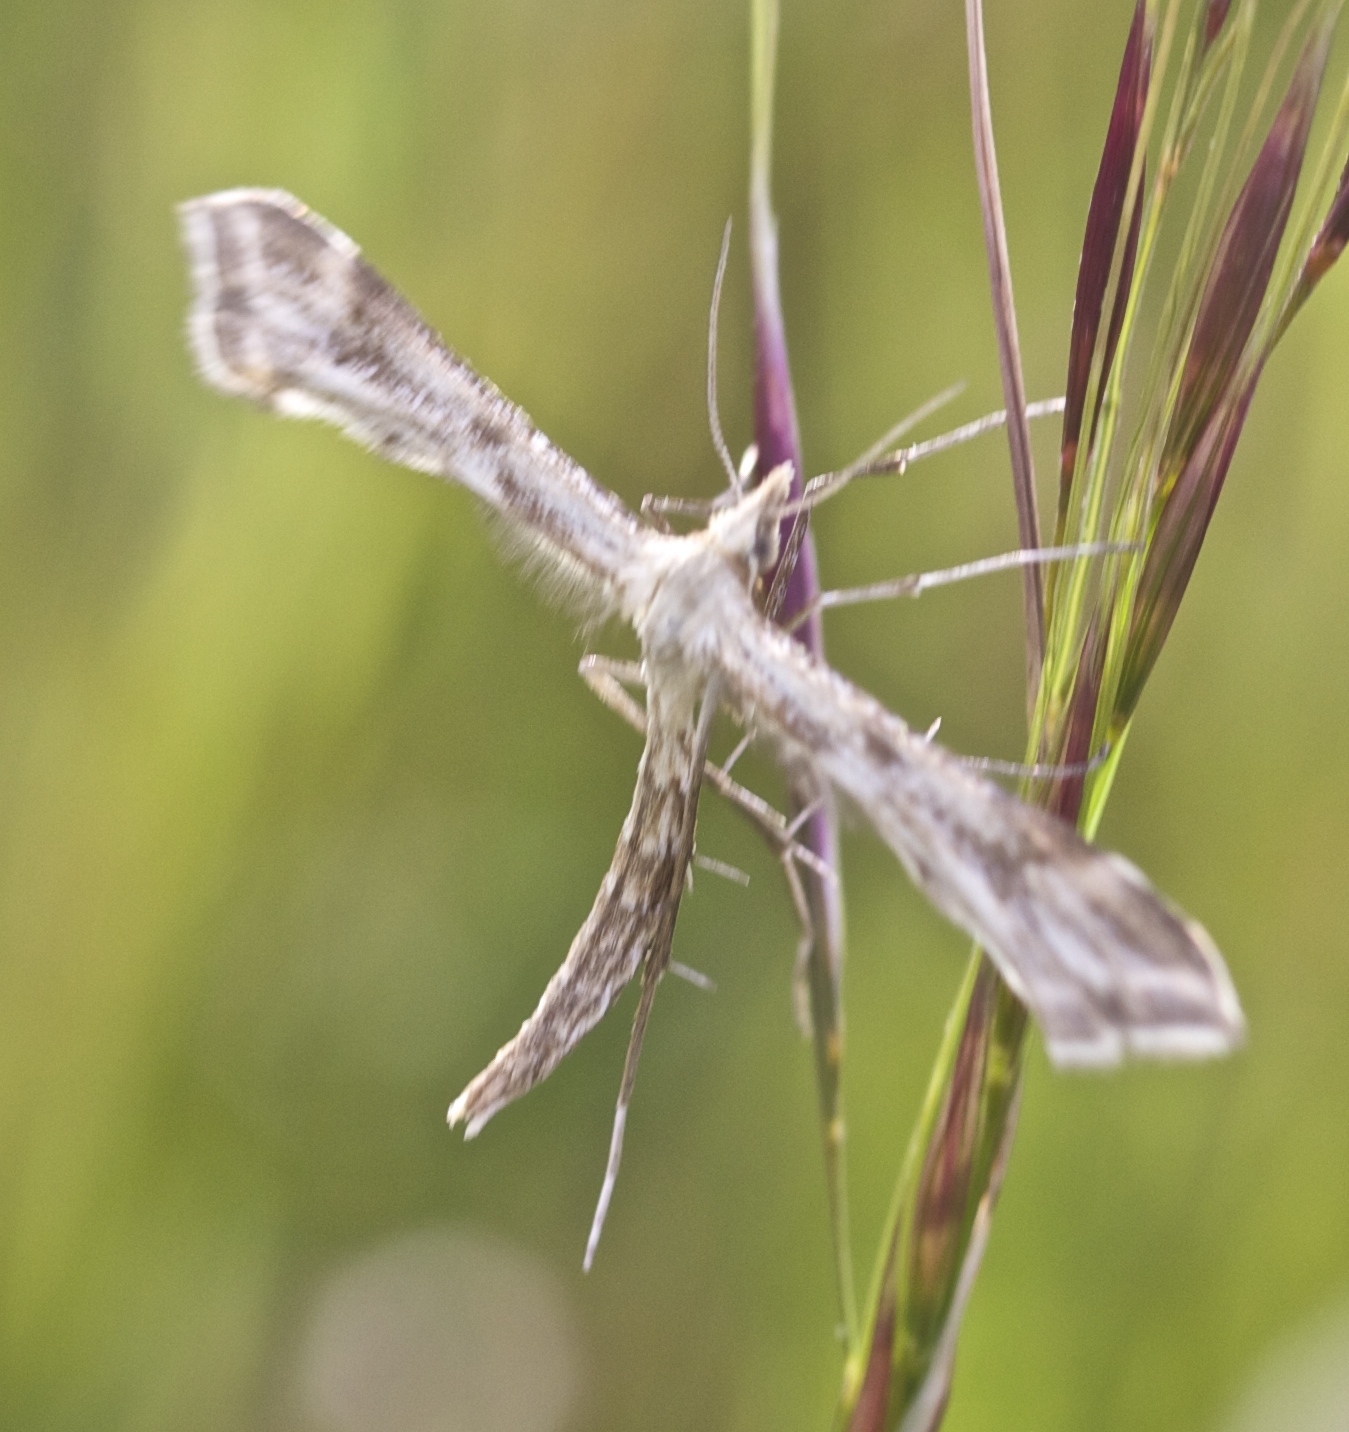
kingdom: Animalia
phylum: Arthropoda
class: Insecta
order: Lepidoptera
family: Pterophoridae
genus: Gillmeria
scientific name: Gillmeria pallidactyla
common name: Yarrow plume
